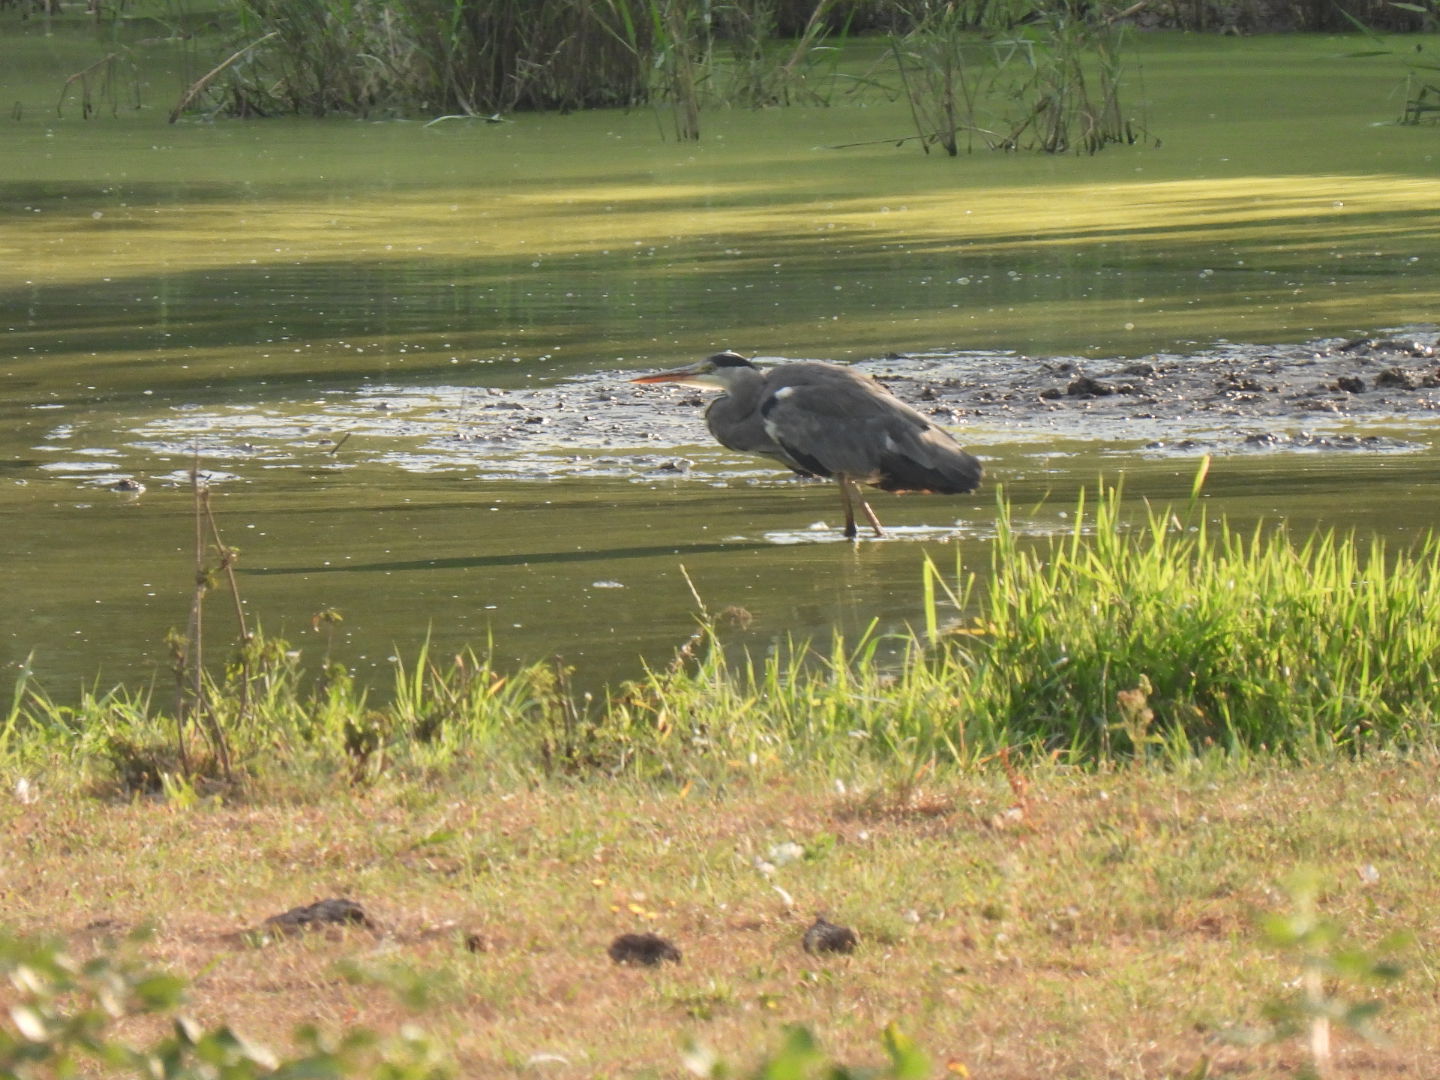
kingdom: Animalia
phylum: Chordata
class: Aves
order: Pelecaniformes
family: Ardeidae
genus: Ardea
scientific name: Ardea cinerea
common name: Grey heron
